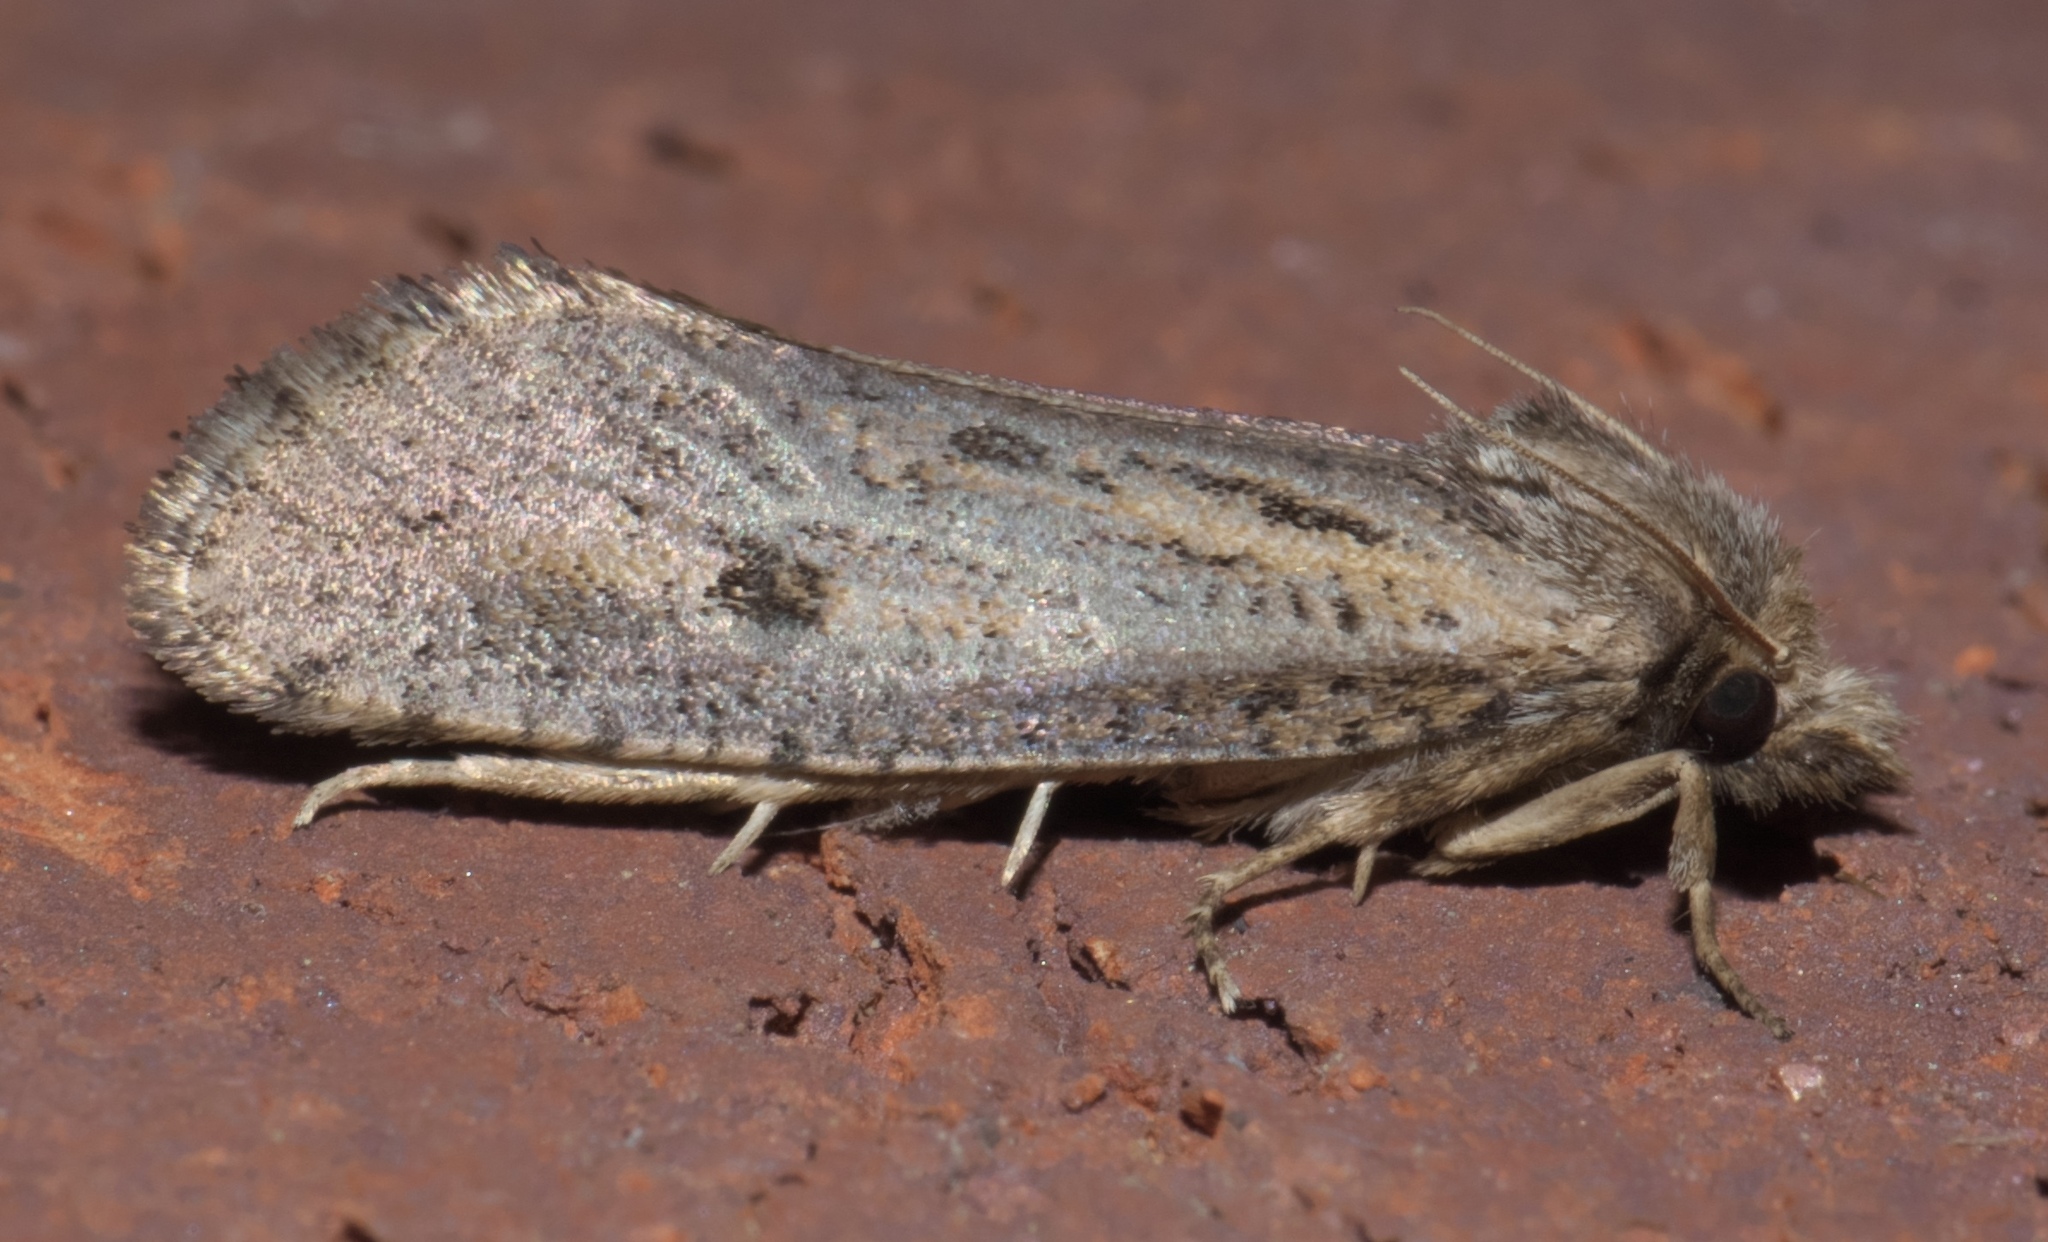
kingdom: Animalia
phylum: Arthropoda
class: Insecta
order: Lepidoptera
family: Tineidae
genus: Acrolophus
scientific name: Acrolophus popeanella
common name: Clemens' grass tubeworm moth
